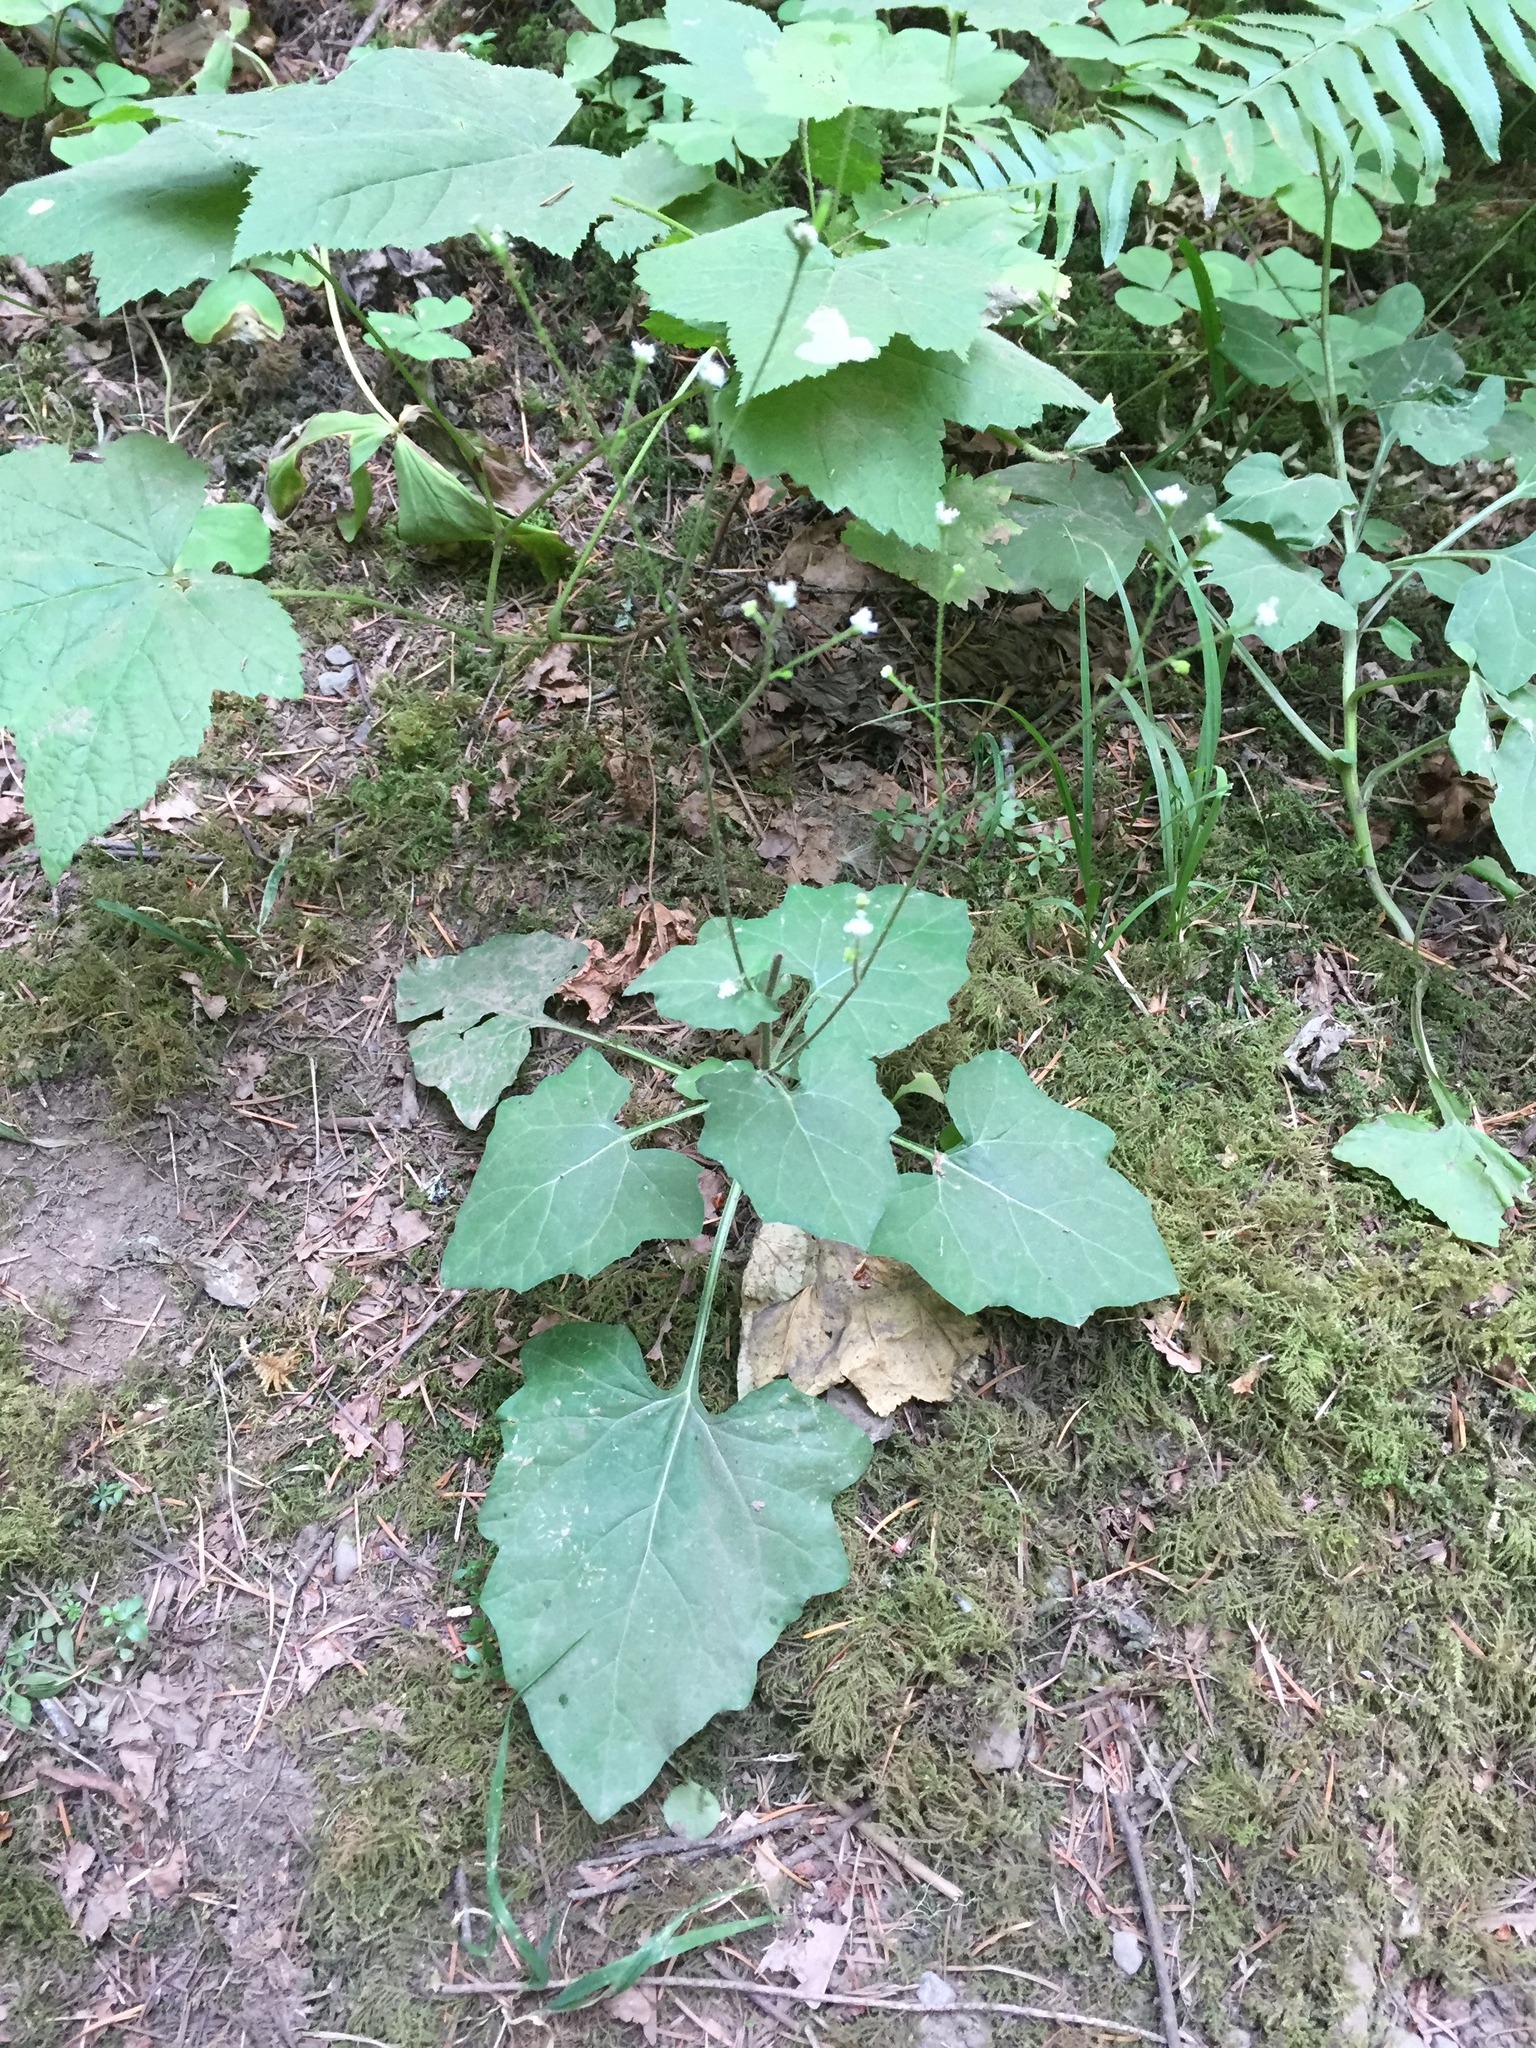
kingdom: Plantae
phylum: Tracheophyta
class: Magnoliopsida
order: Asterales
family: Asteraceae
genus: Adenocaulon
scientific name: Adenocaulon bicolor
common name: Trailplant
